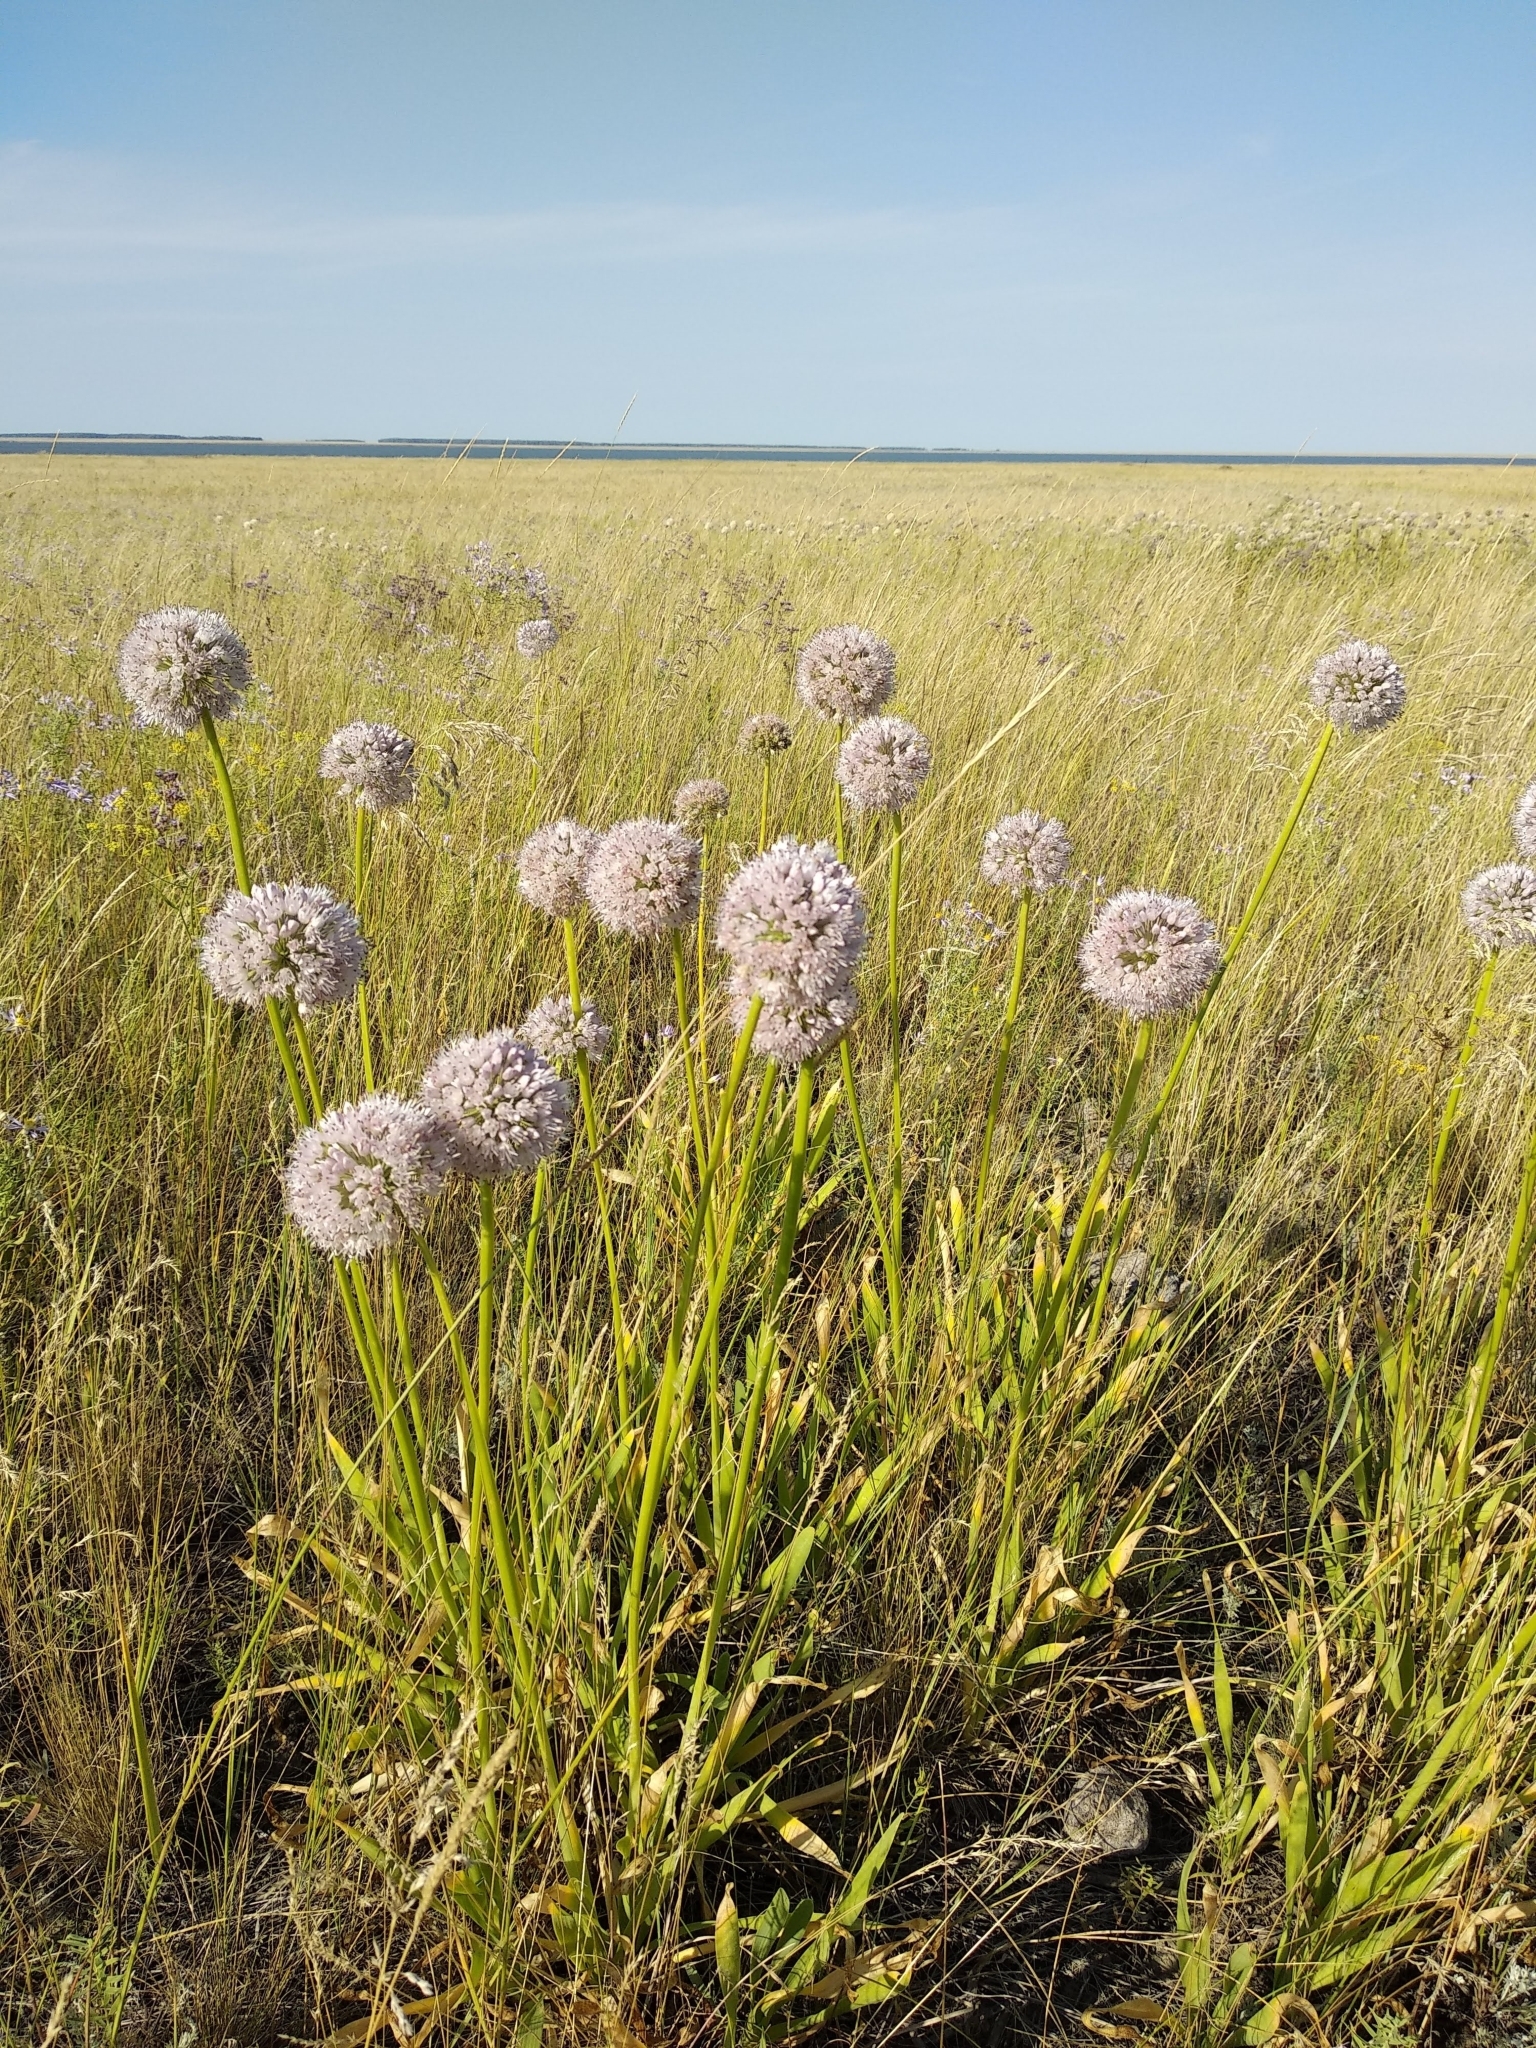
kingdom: Plantae
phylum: Tracheophyta
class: Liliopsida
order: Asparagales
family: Amaryllidaceae
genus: Allium
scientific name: Allium nutans
